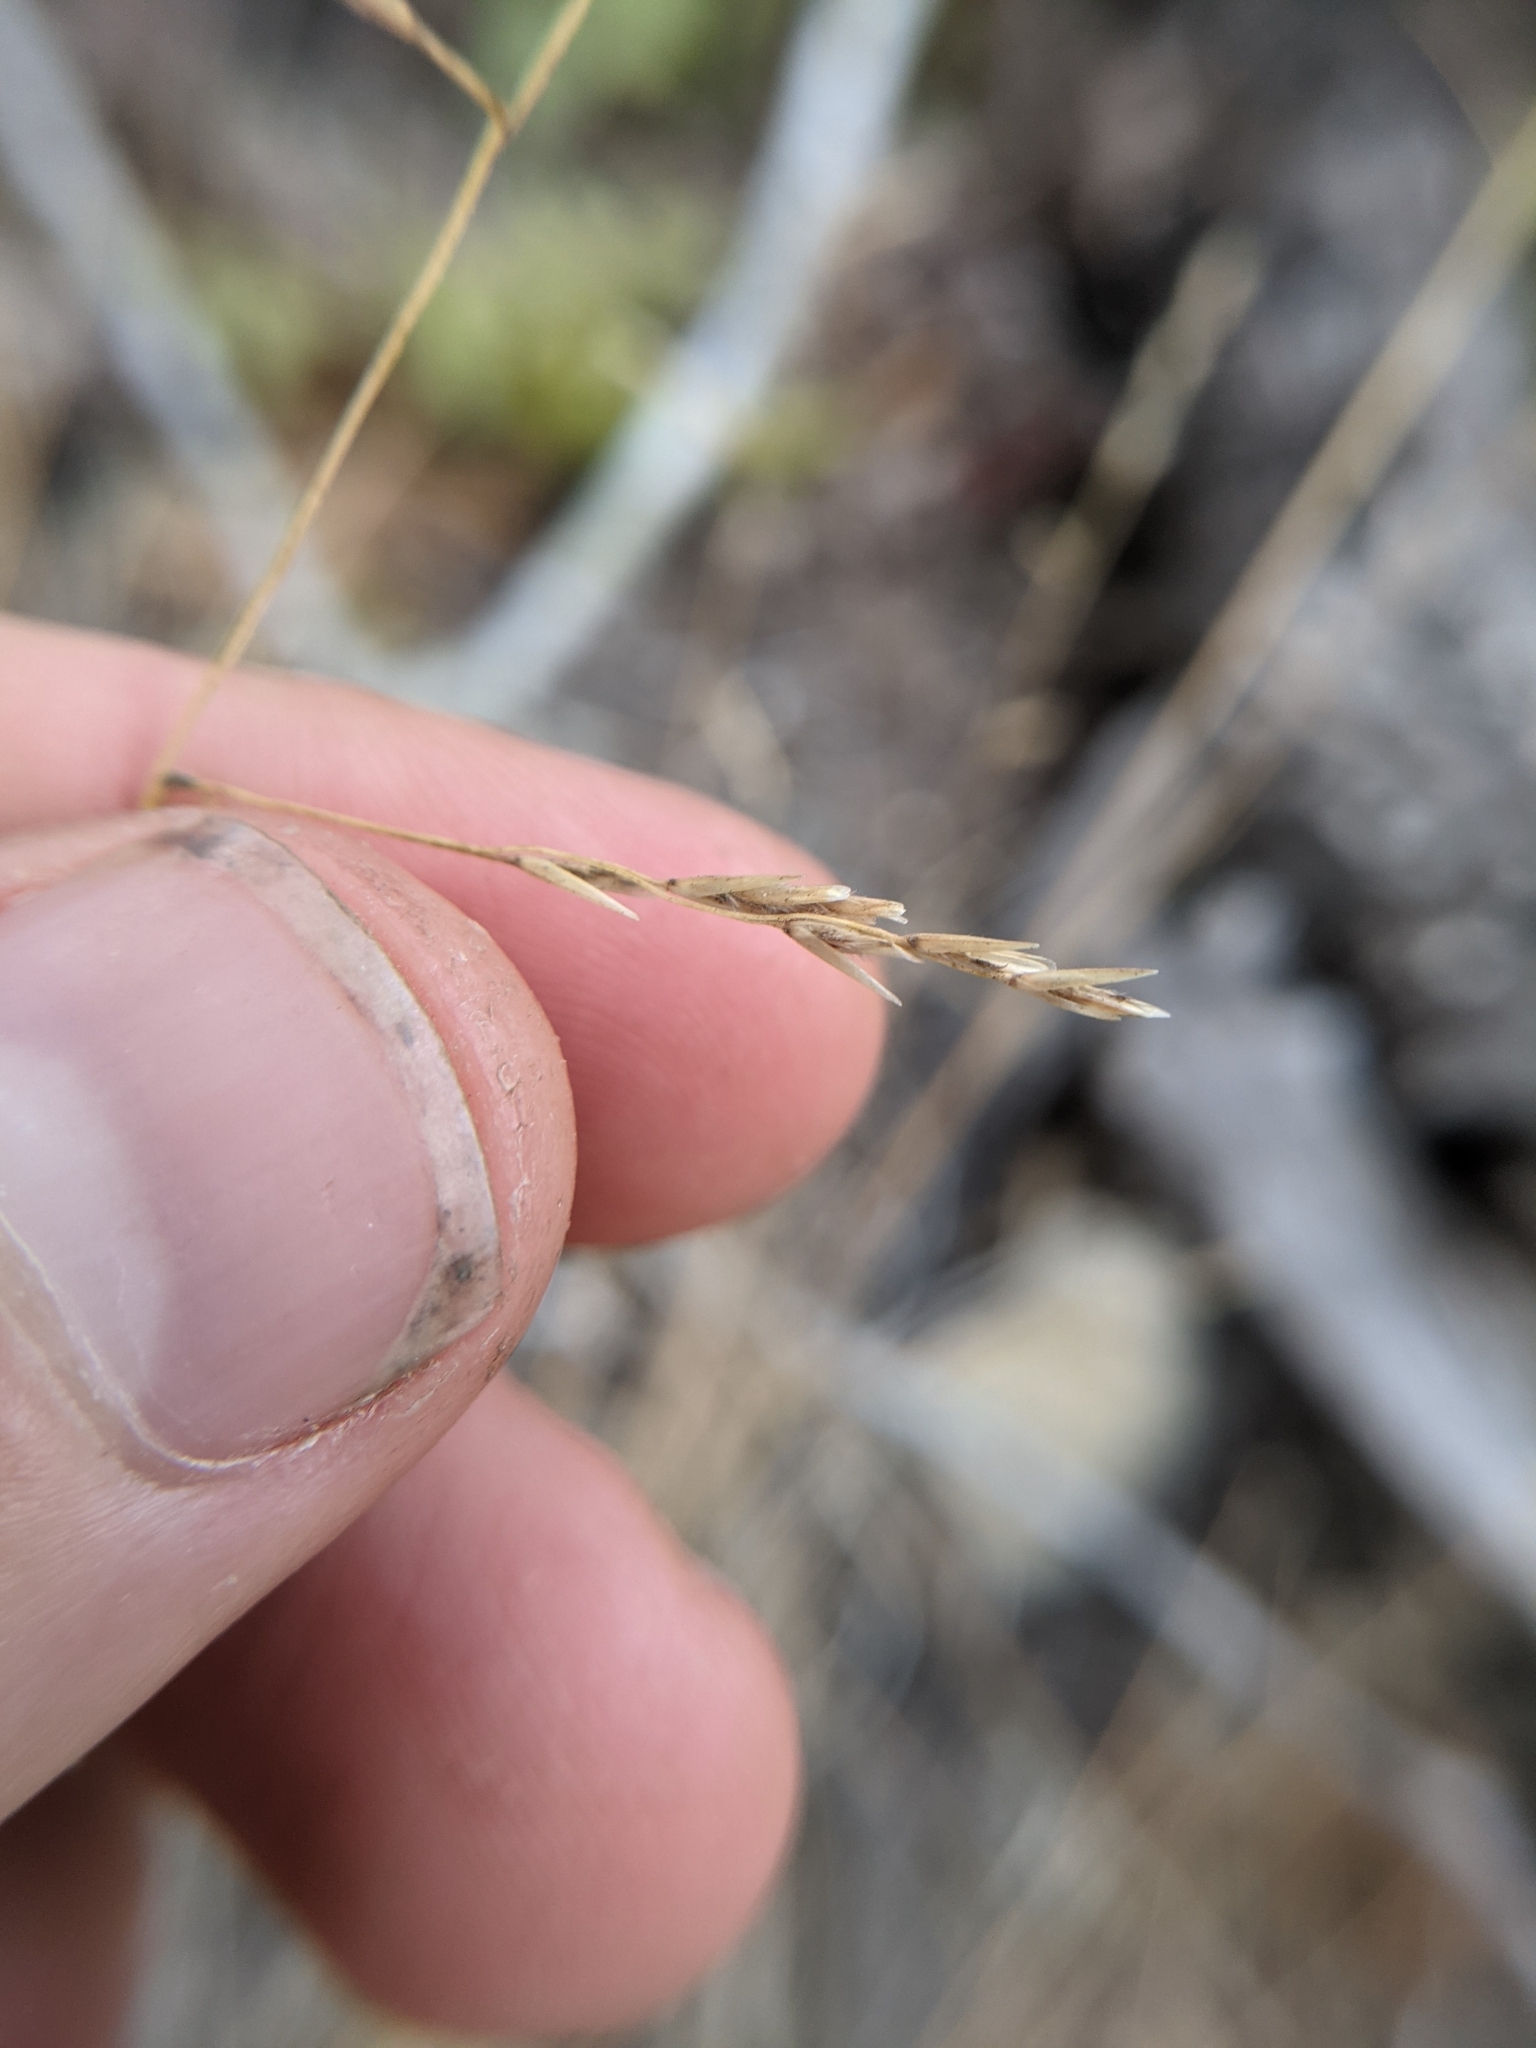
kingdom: Plantae
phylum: Tracheophyta
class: Liliopsida
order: Poales
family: Poaceae
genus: Tridentopsis
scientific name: Tridentopsis buckleyana
